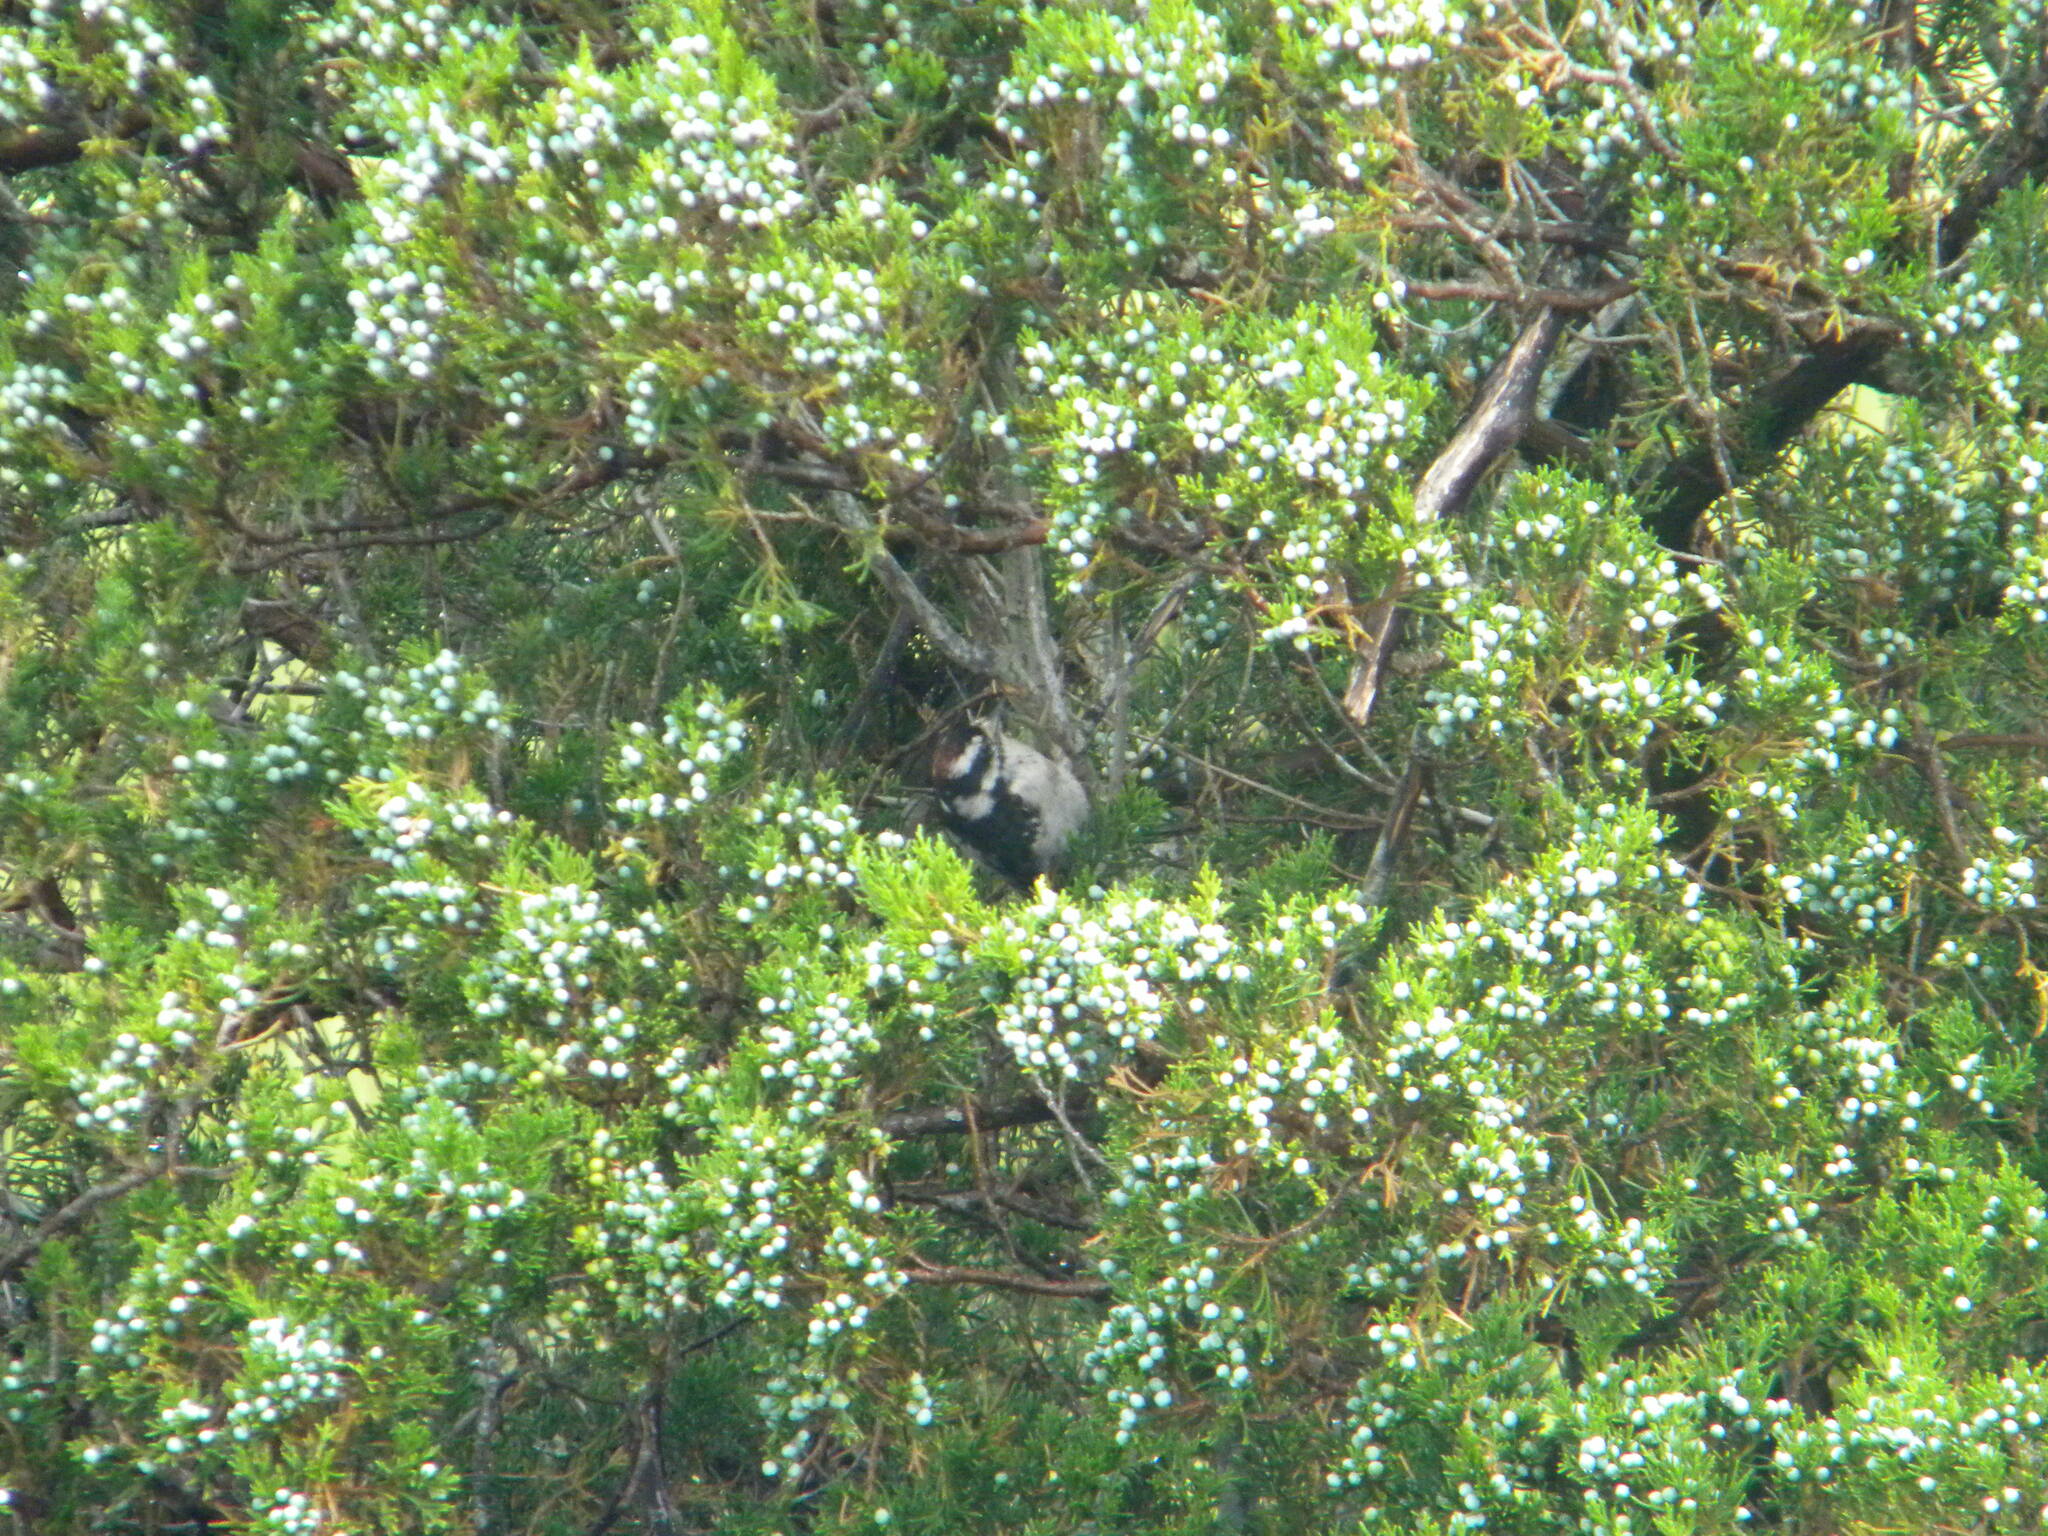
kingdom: Animalia
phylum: Chordata
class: Aves
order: Piciformes
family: Picidae
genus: Dryobates
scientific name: Dryobates pubescens
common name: Downy woodpecker
